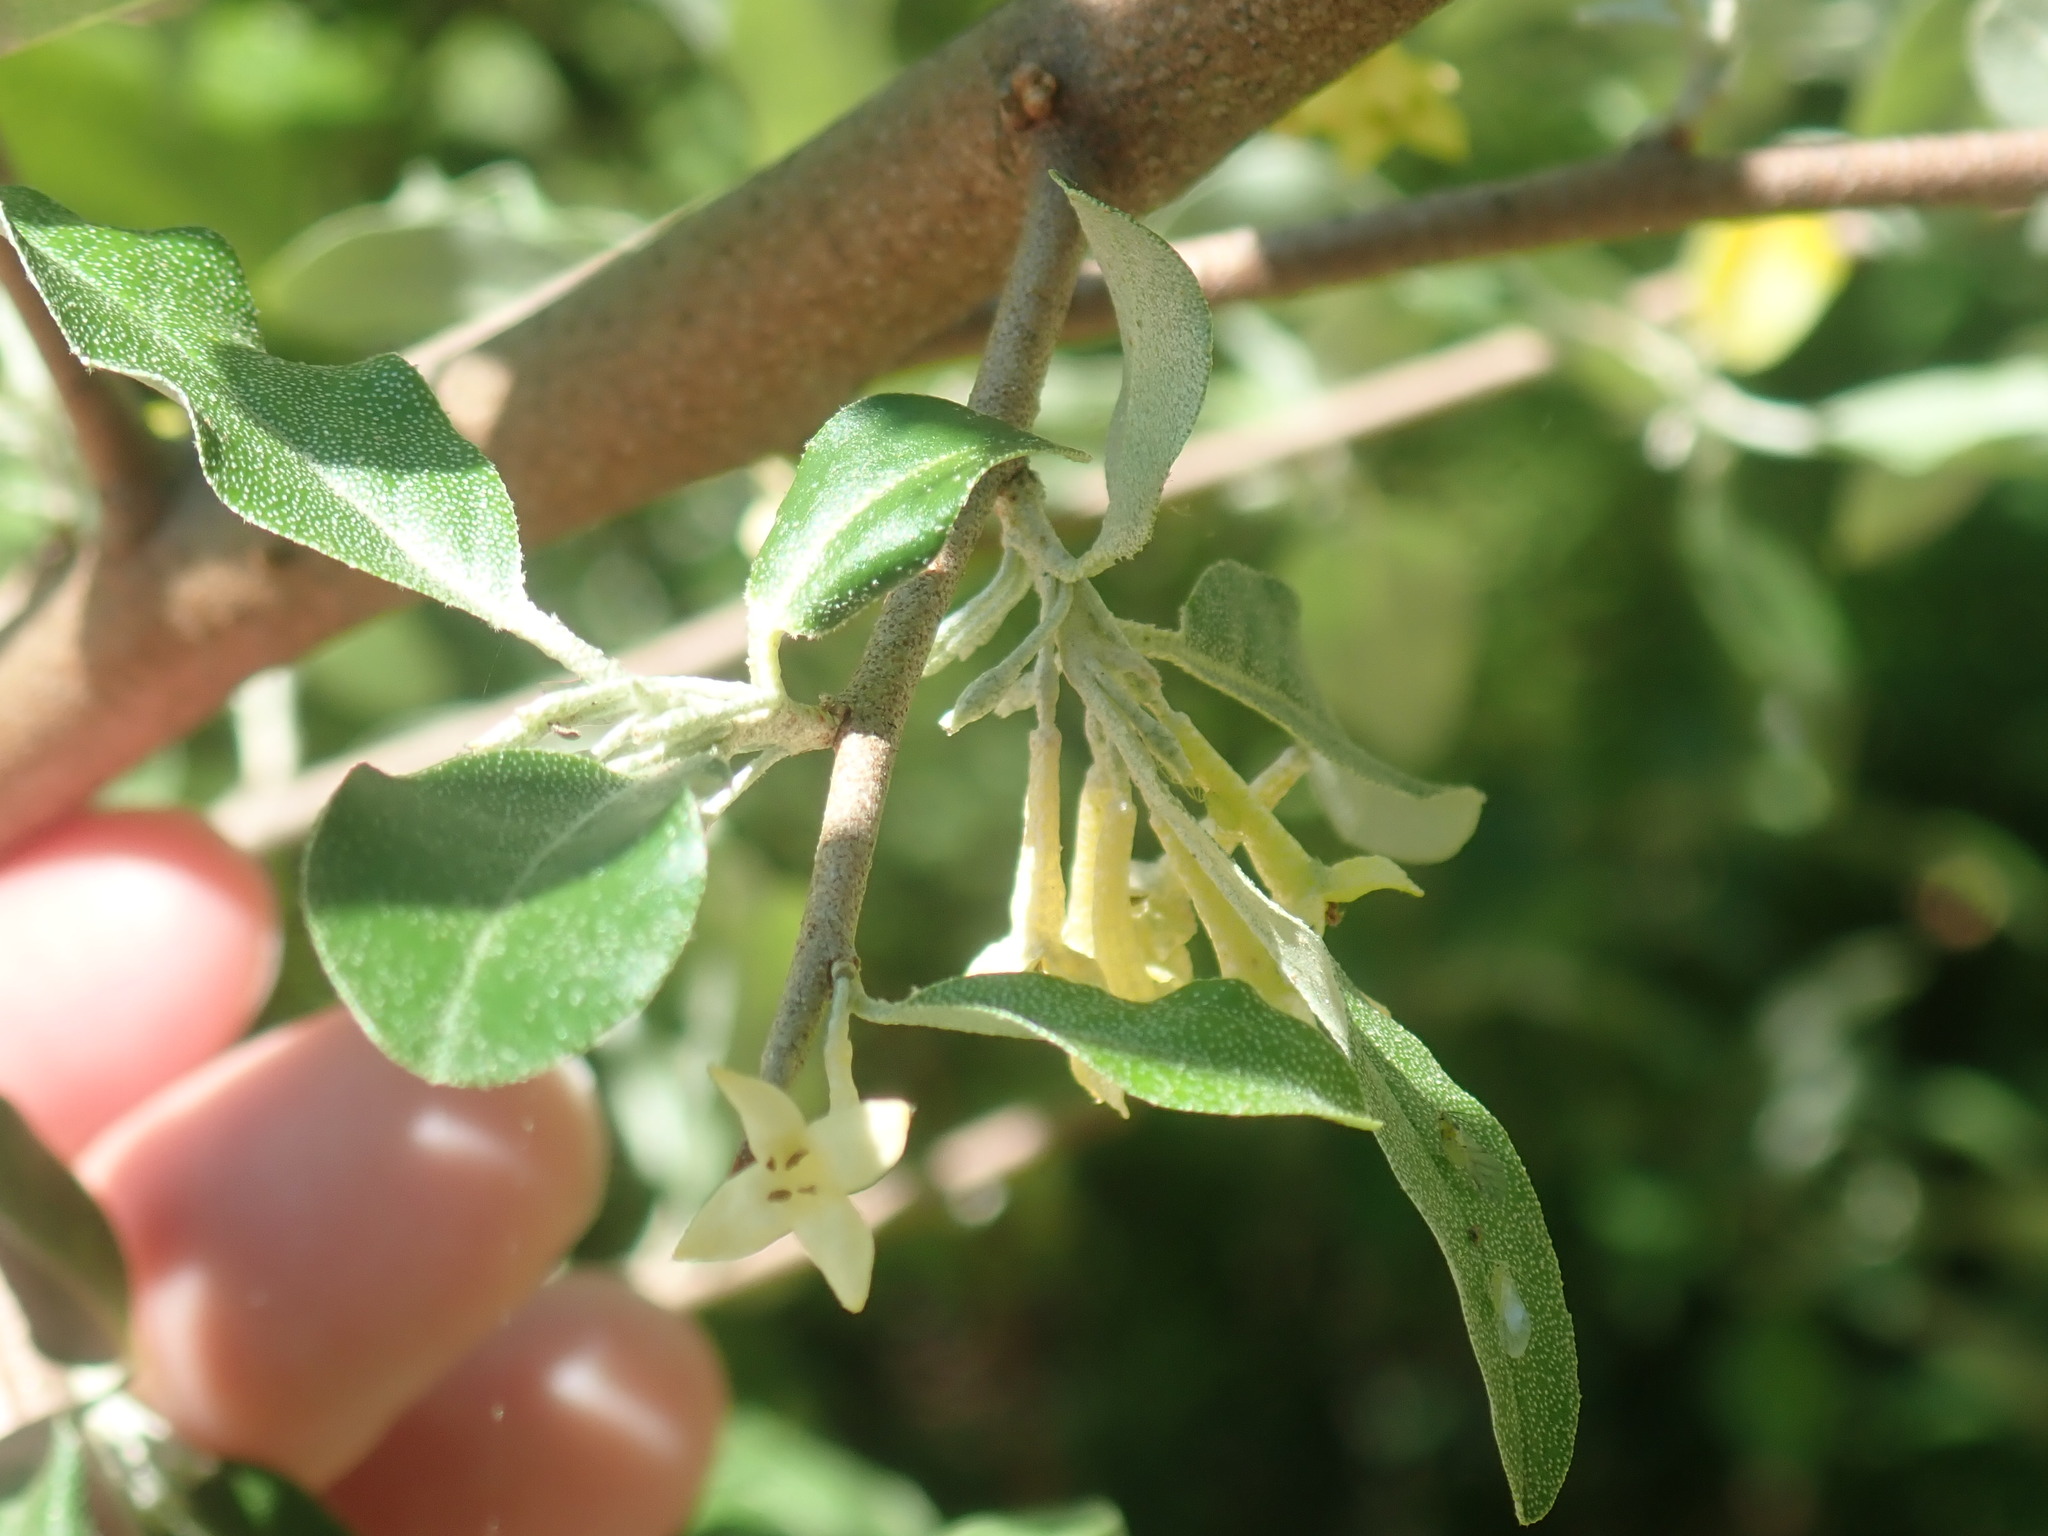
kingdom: Plantae
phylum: Tracheophyta
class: Magnoliopsida
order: Rosales
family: Elaeagnaceae
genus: Elaeagnus
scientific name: Elaeagnus umbellata
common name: Autumn olive
